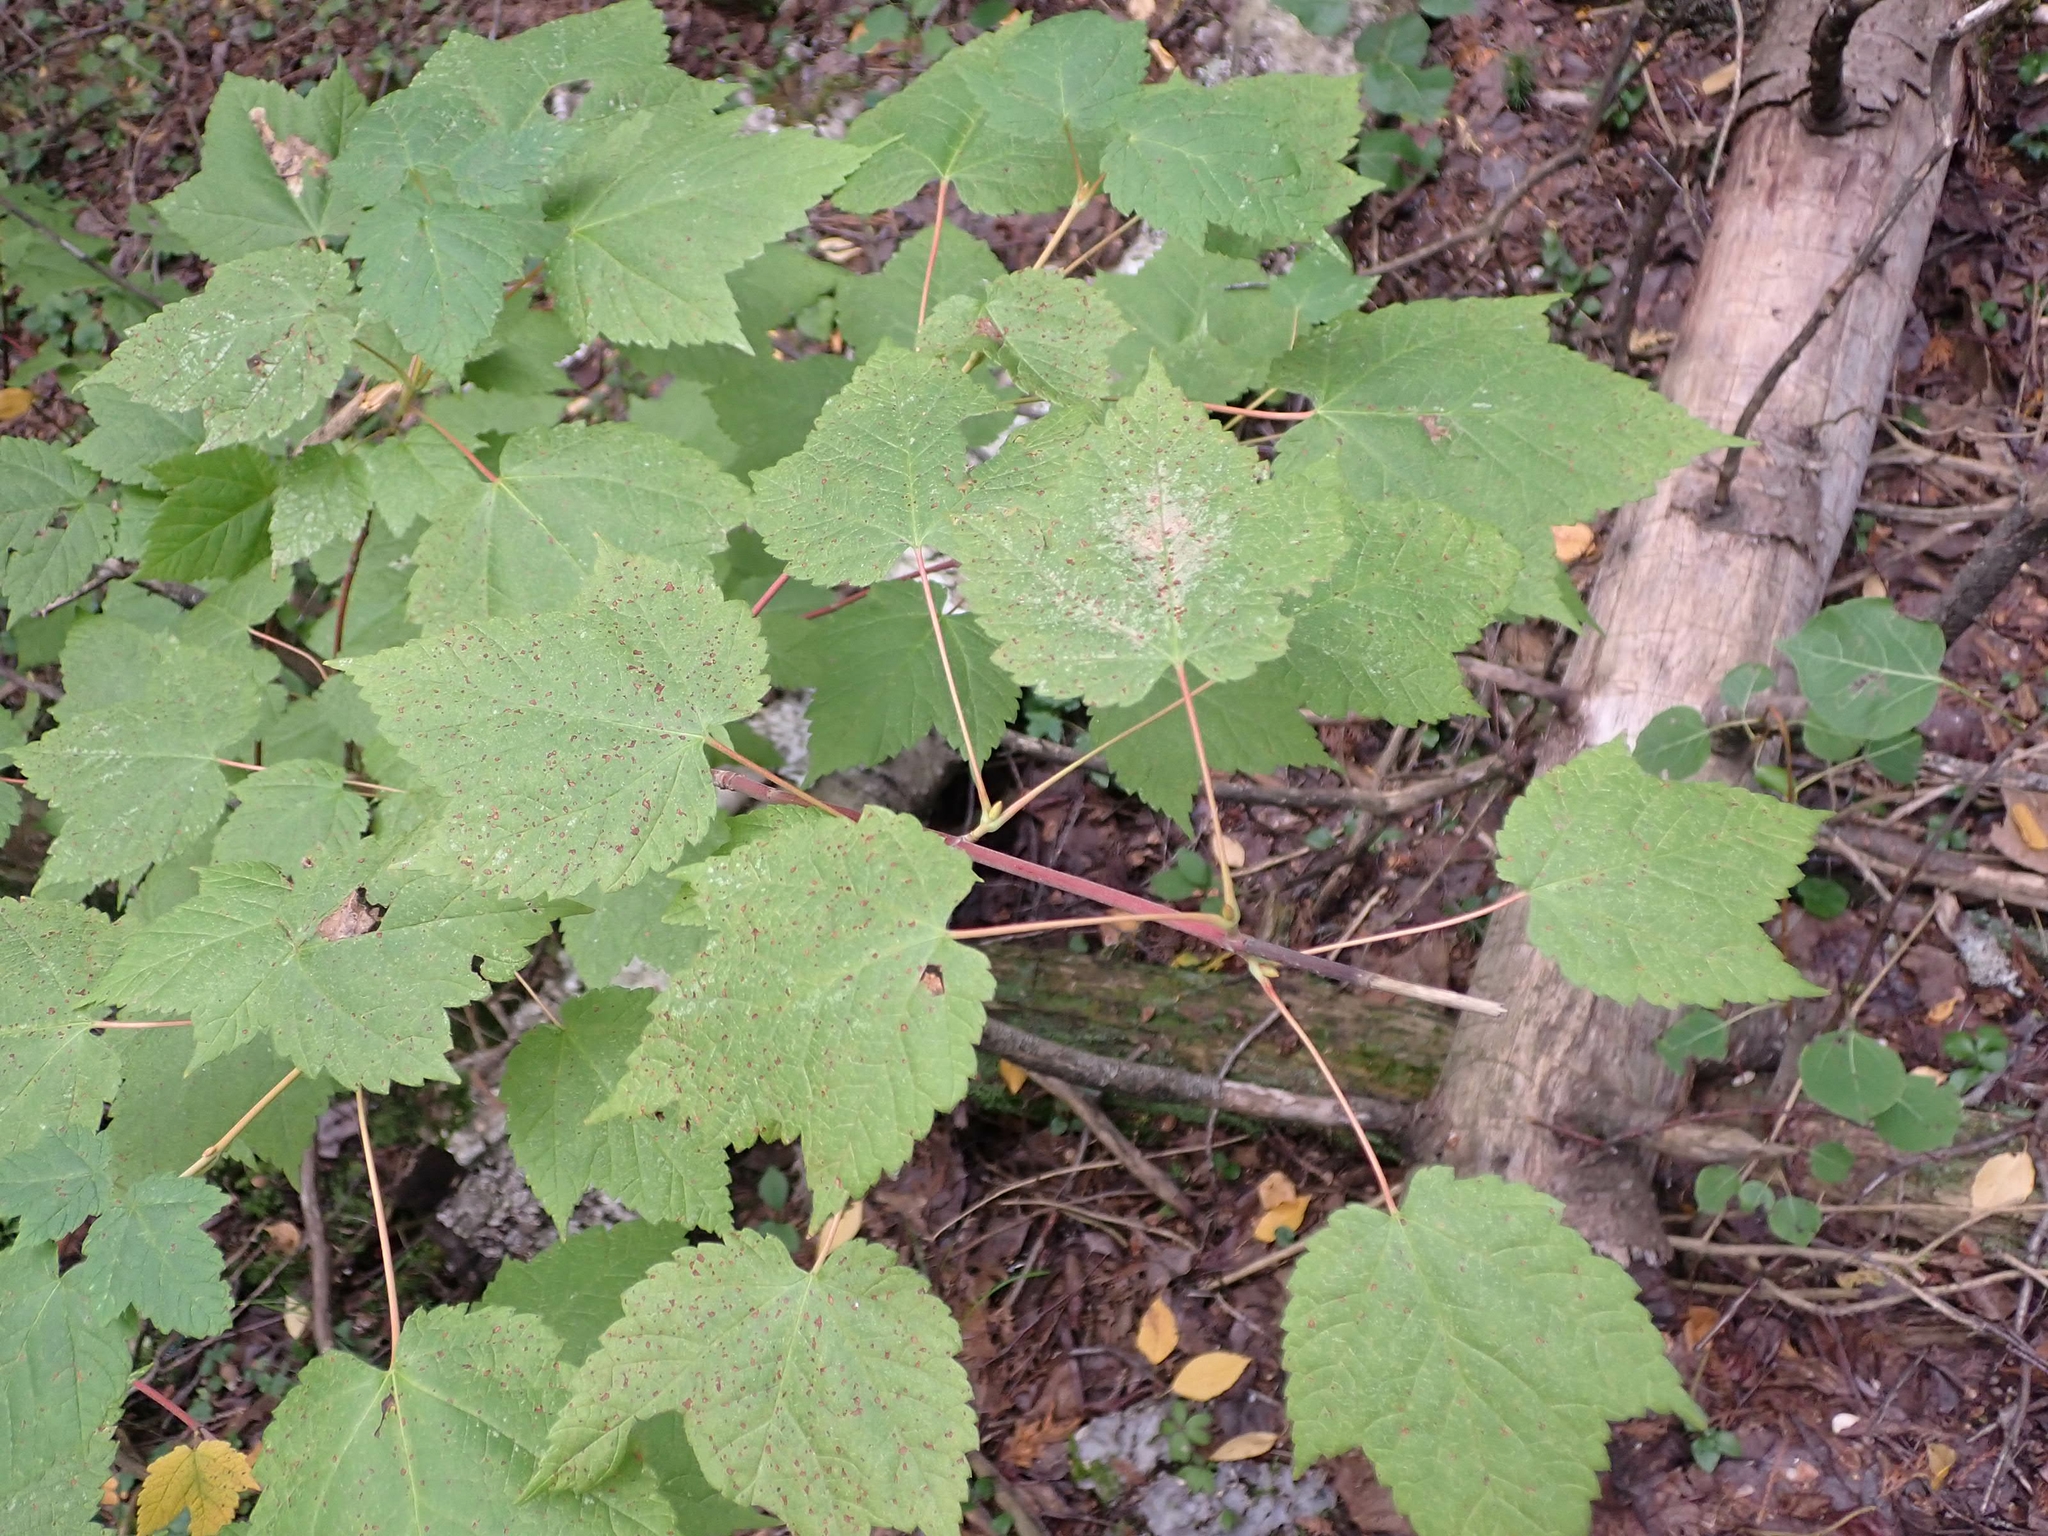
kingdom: Plantae
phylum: Tracheophyta
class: Magnoliopsida
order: Sapindales
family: Sapindaceae
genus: Acer
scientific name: Acer spicatum
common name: Mountain maple
